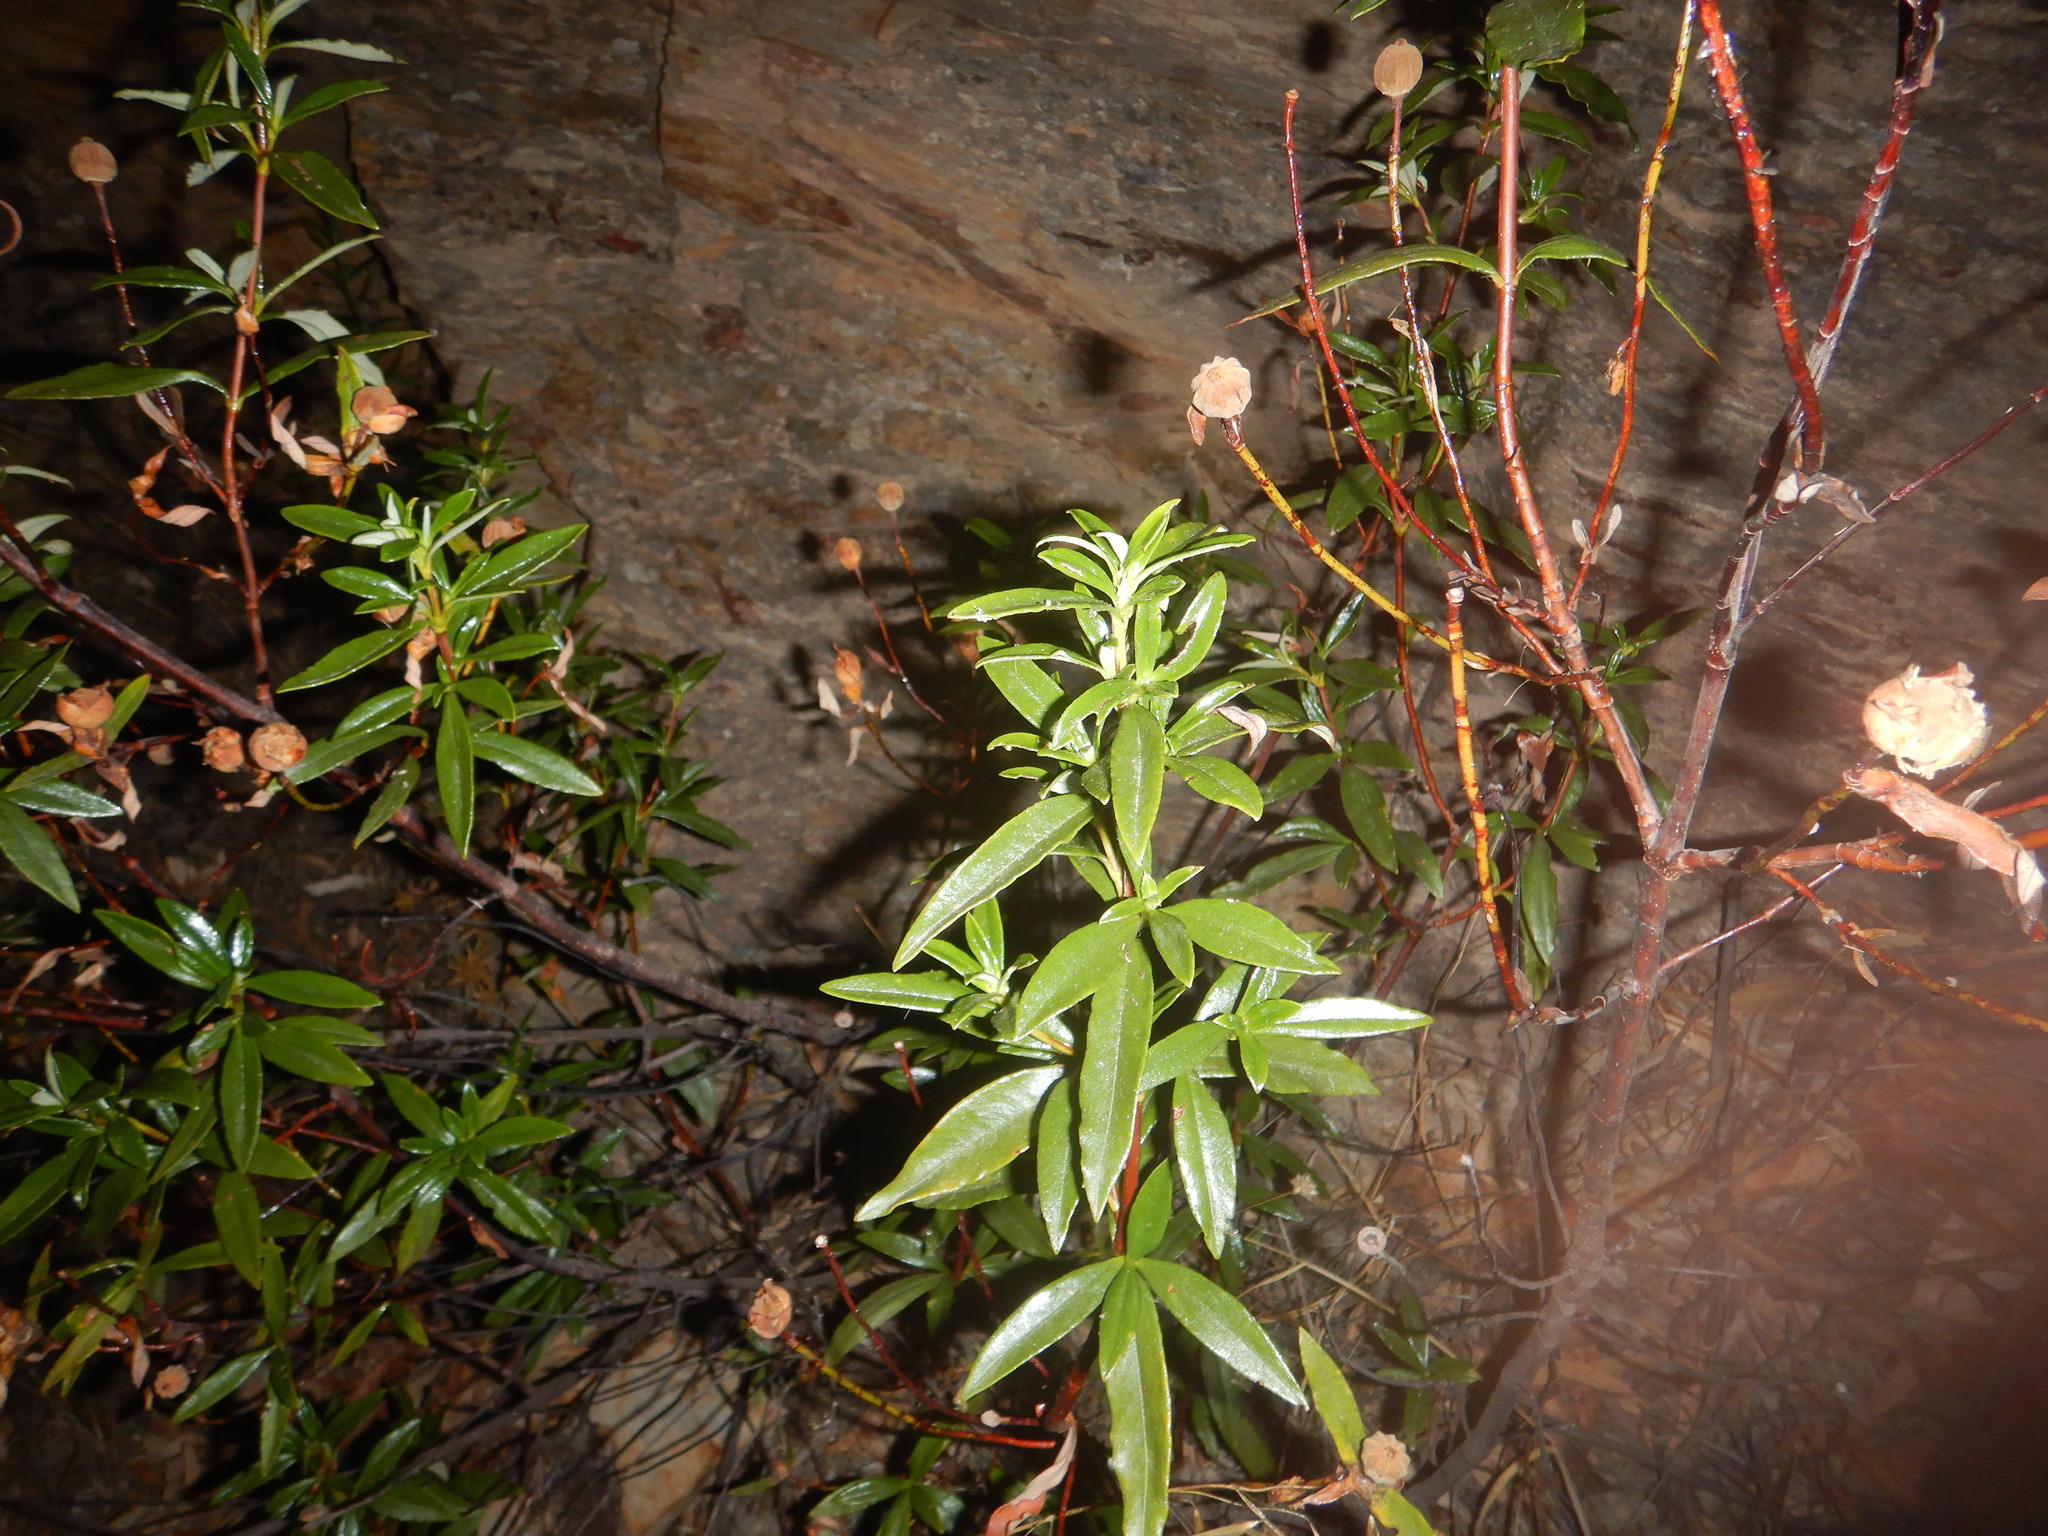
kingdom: Plantae
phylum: Tracheophyta
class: Magnoliopsida
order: Malvales
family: Cistaceae
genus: Cistus
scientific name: Cistus ladanifer
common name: Common gum cistus
